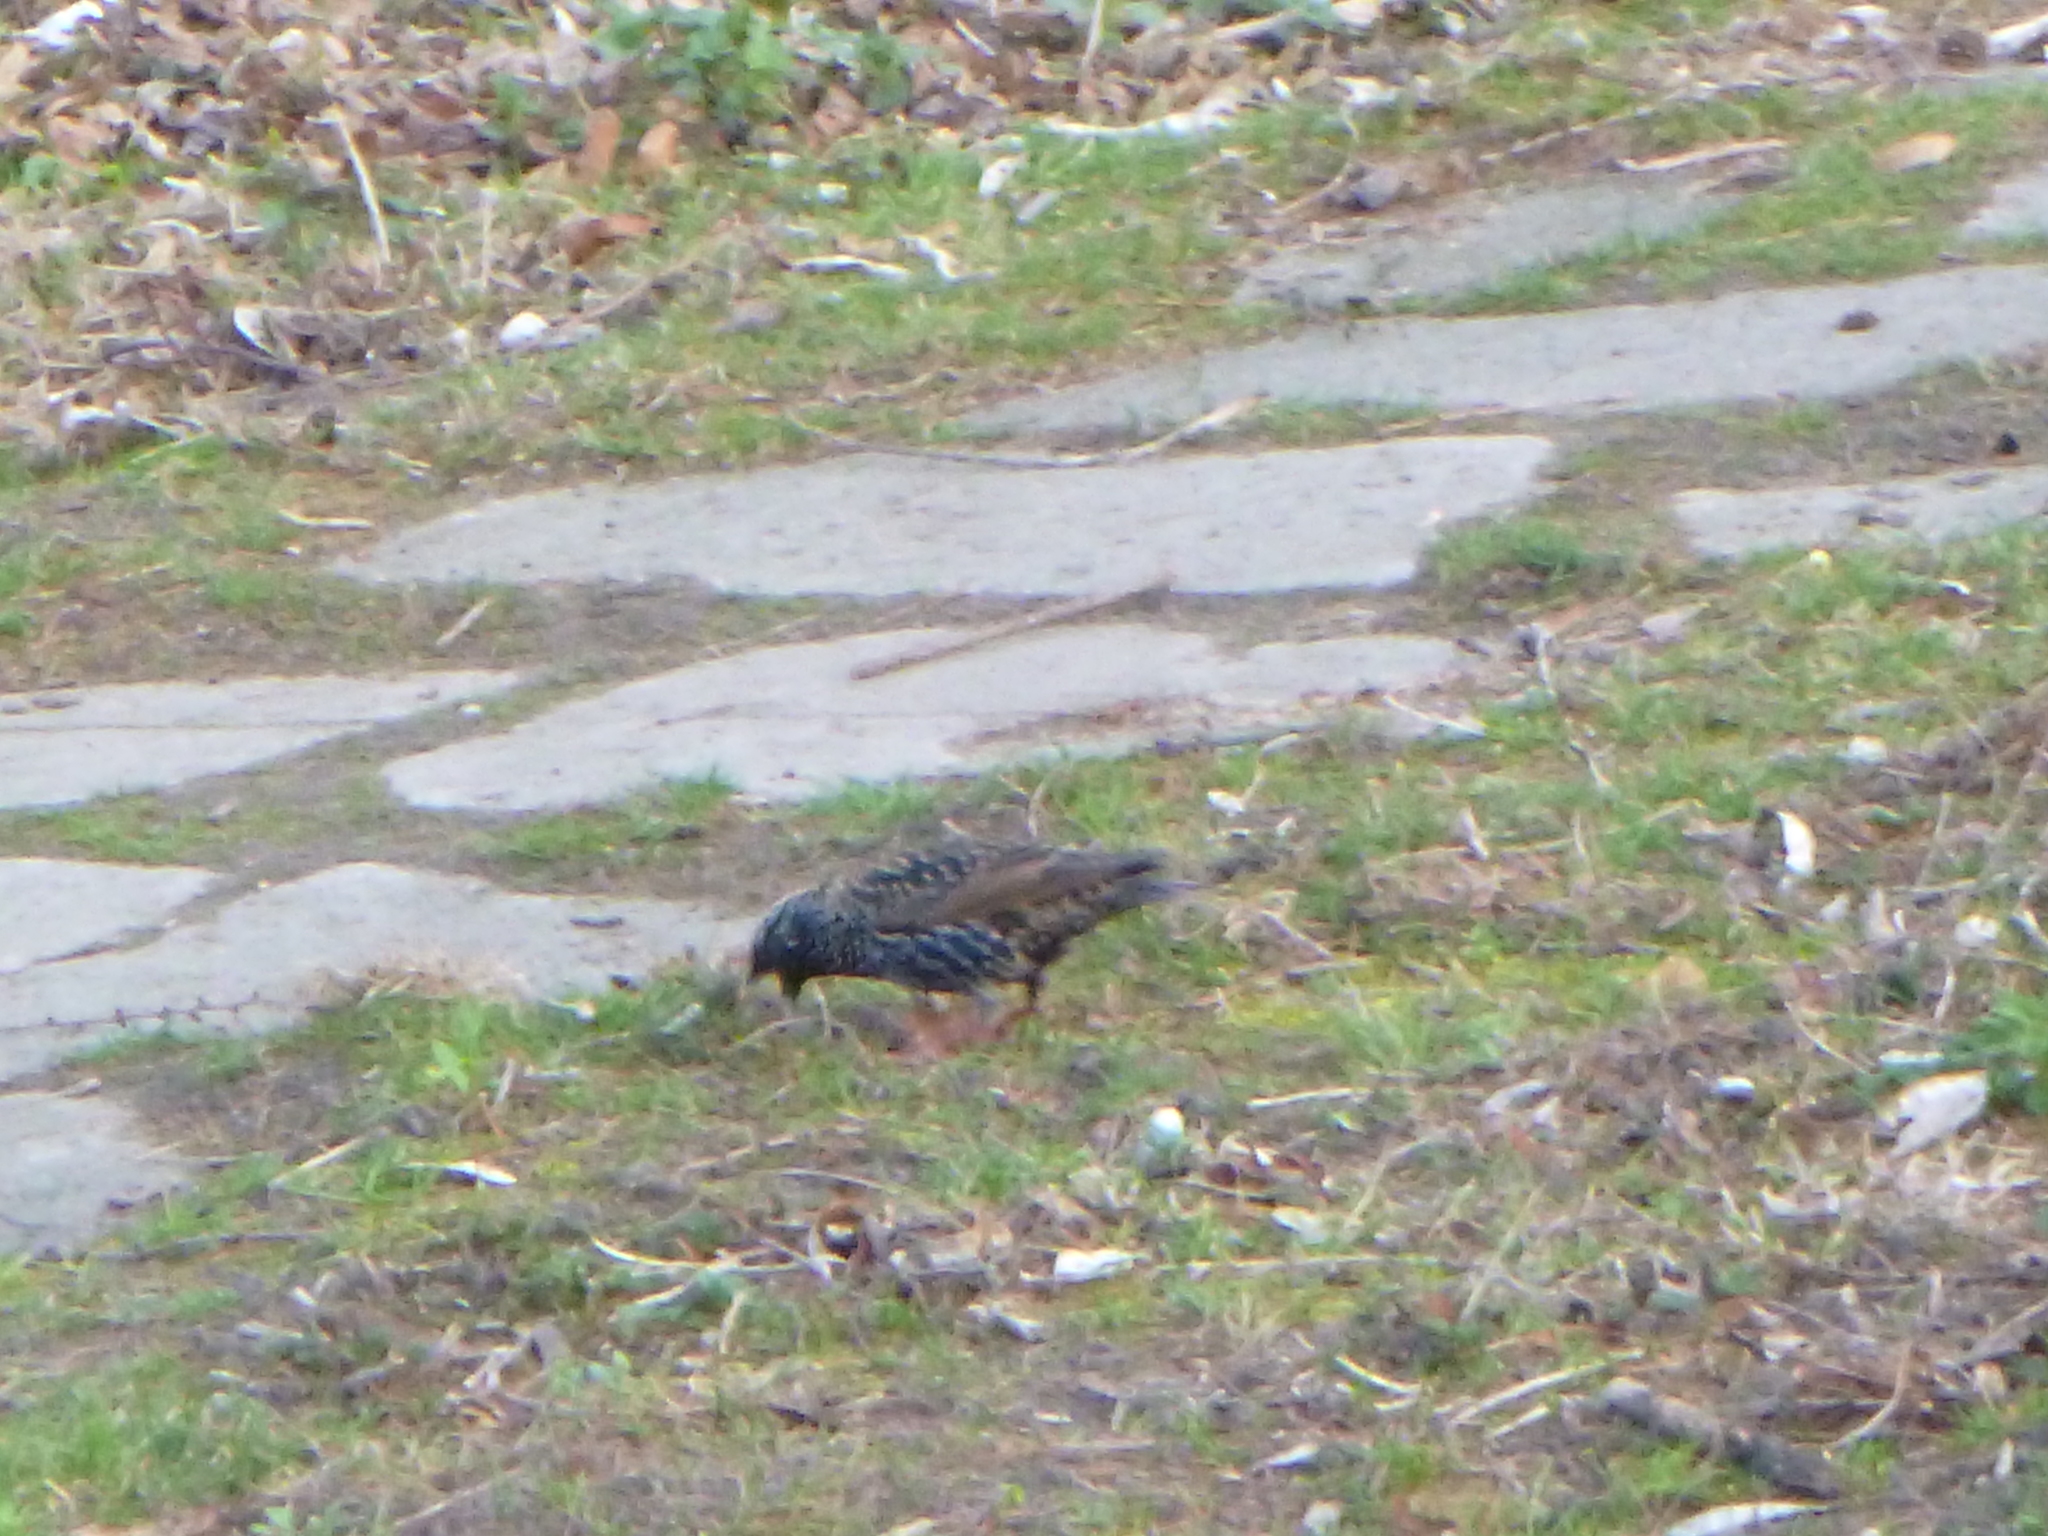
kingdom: Animalia
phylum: Chordata
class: Aves
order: Passeriformes
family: Sturnidae
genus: Sturnus
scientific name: Sturnus vulgaris
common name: Common starling
